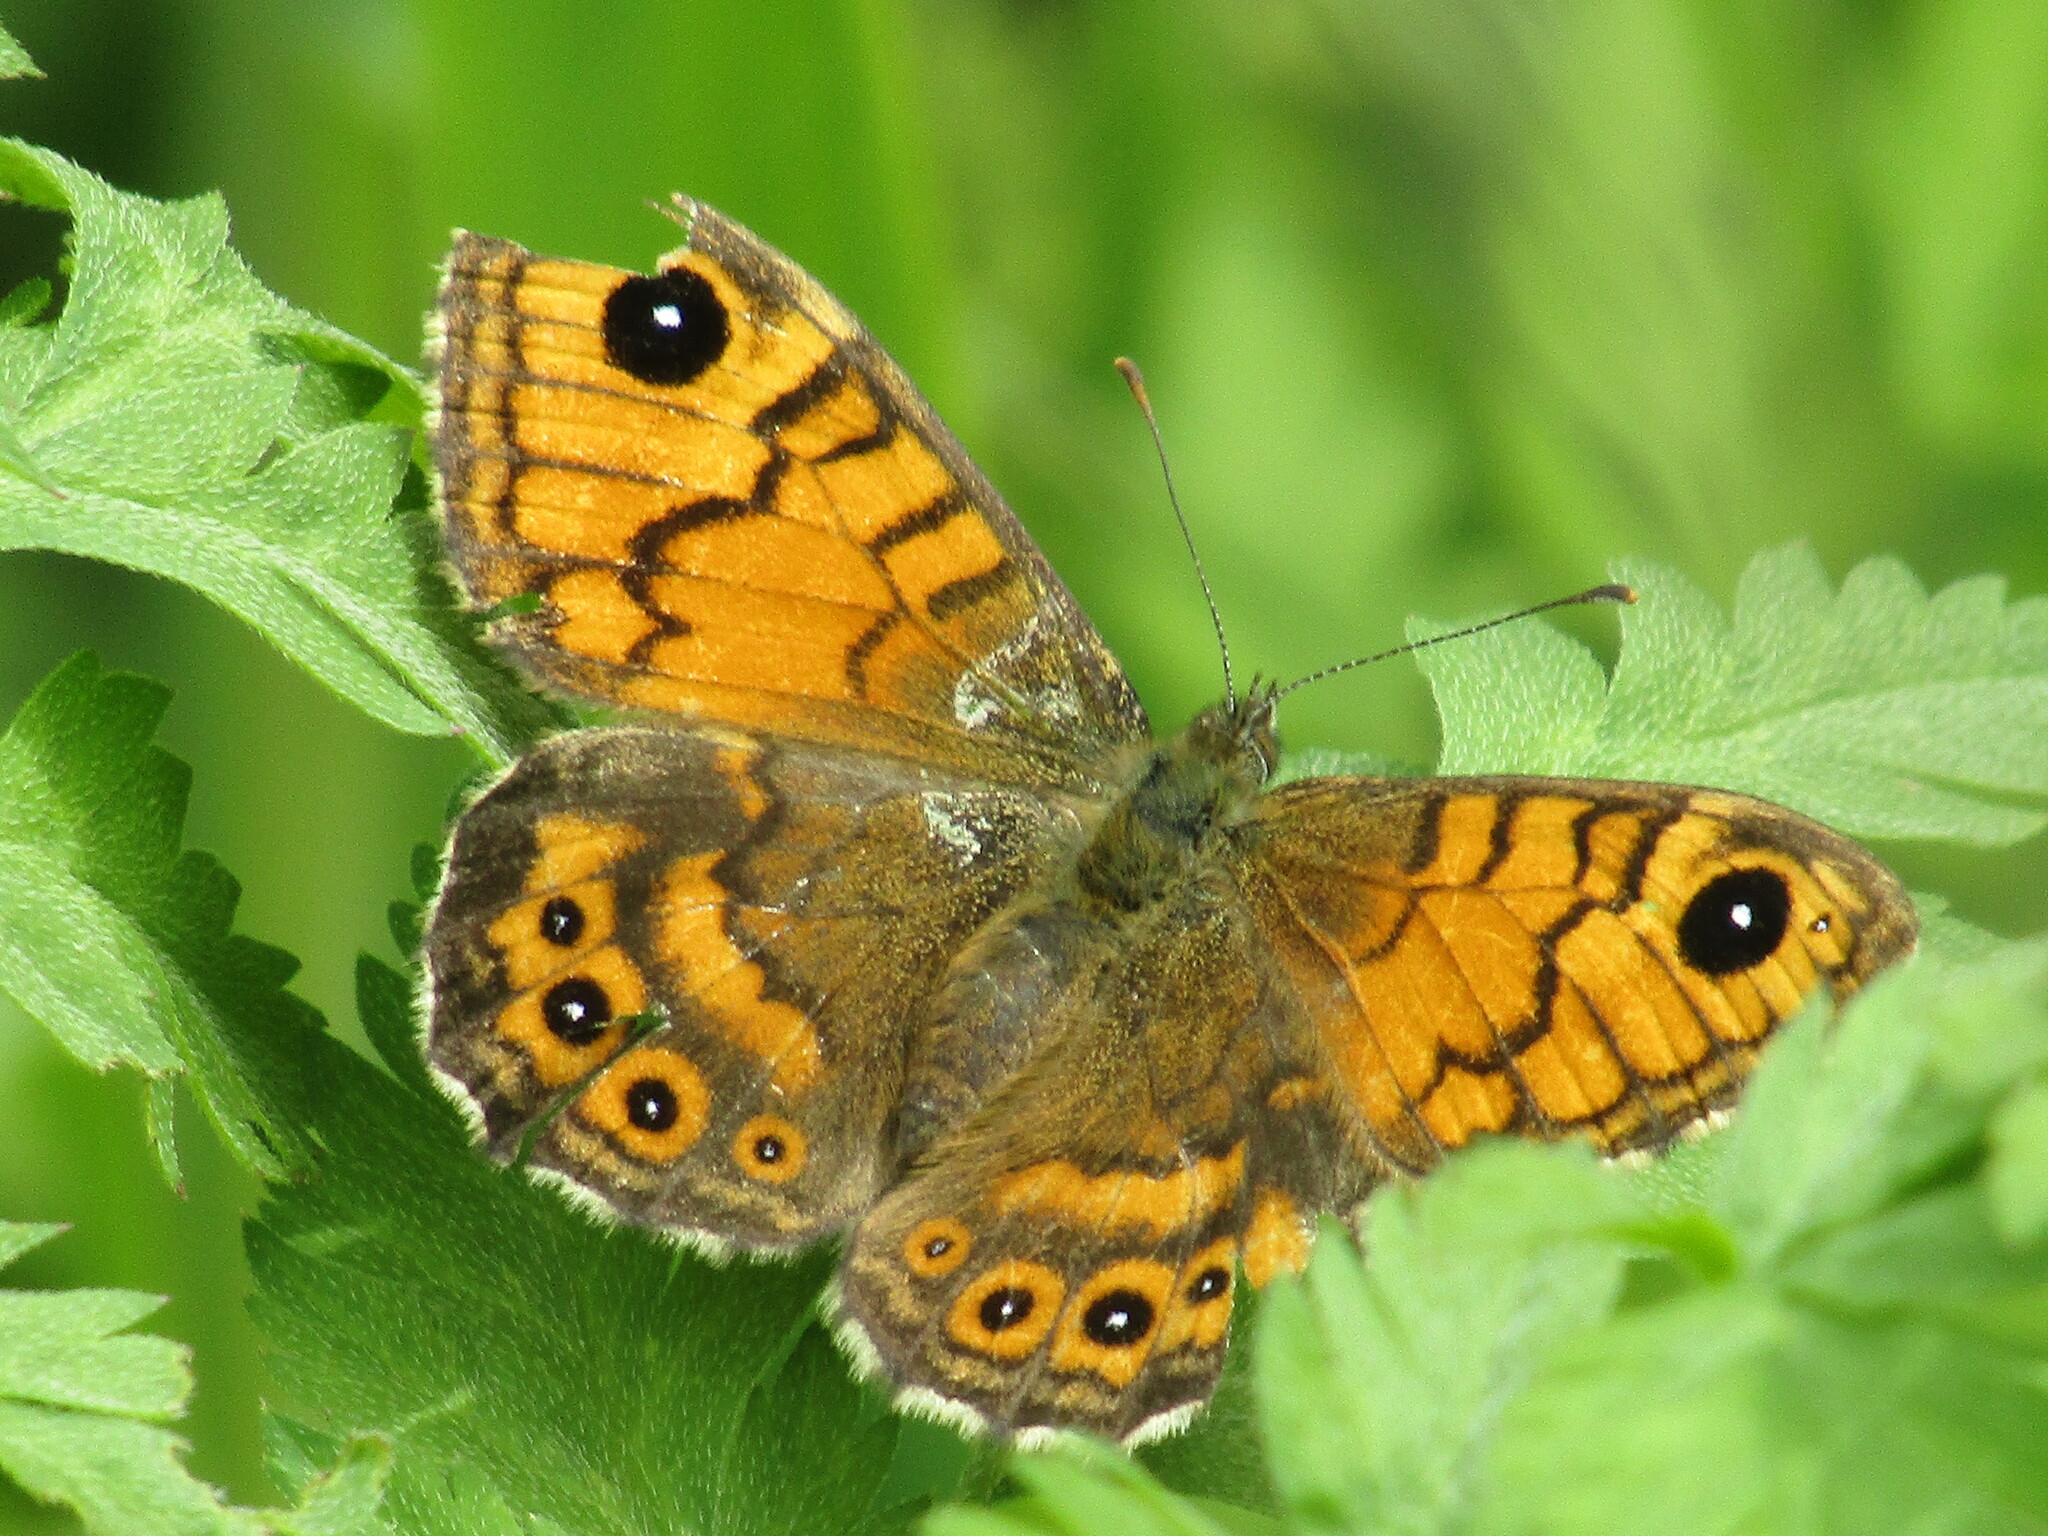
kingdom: Animalia
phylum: Arthropoda
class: Insecta
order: Lepidoptera
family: Nymphalidae
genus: Pararge
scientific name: Pararge Lasiommata megera
